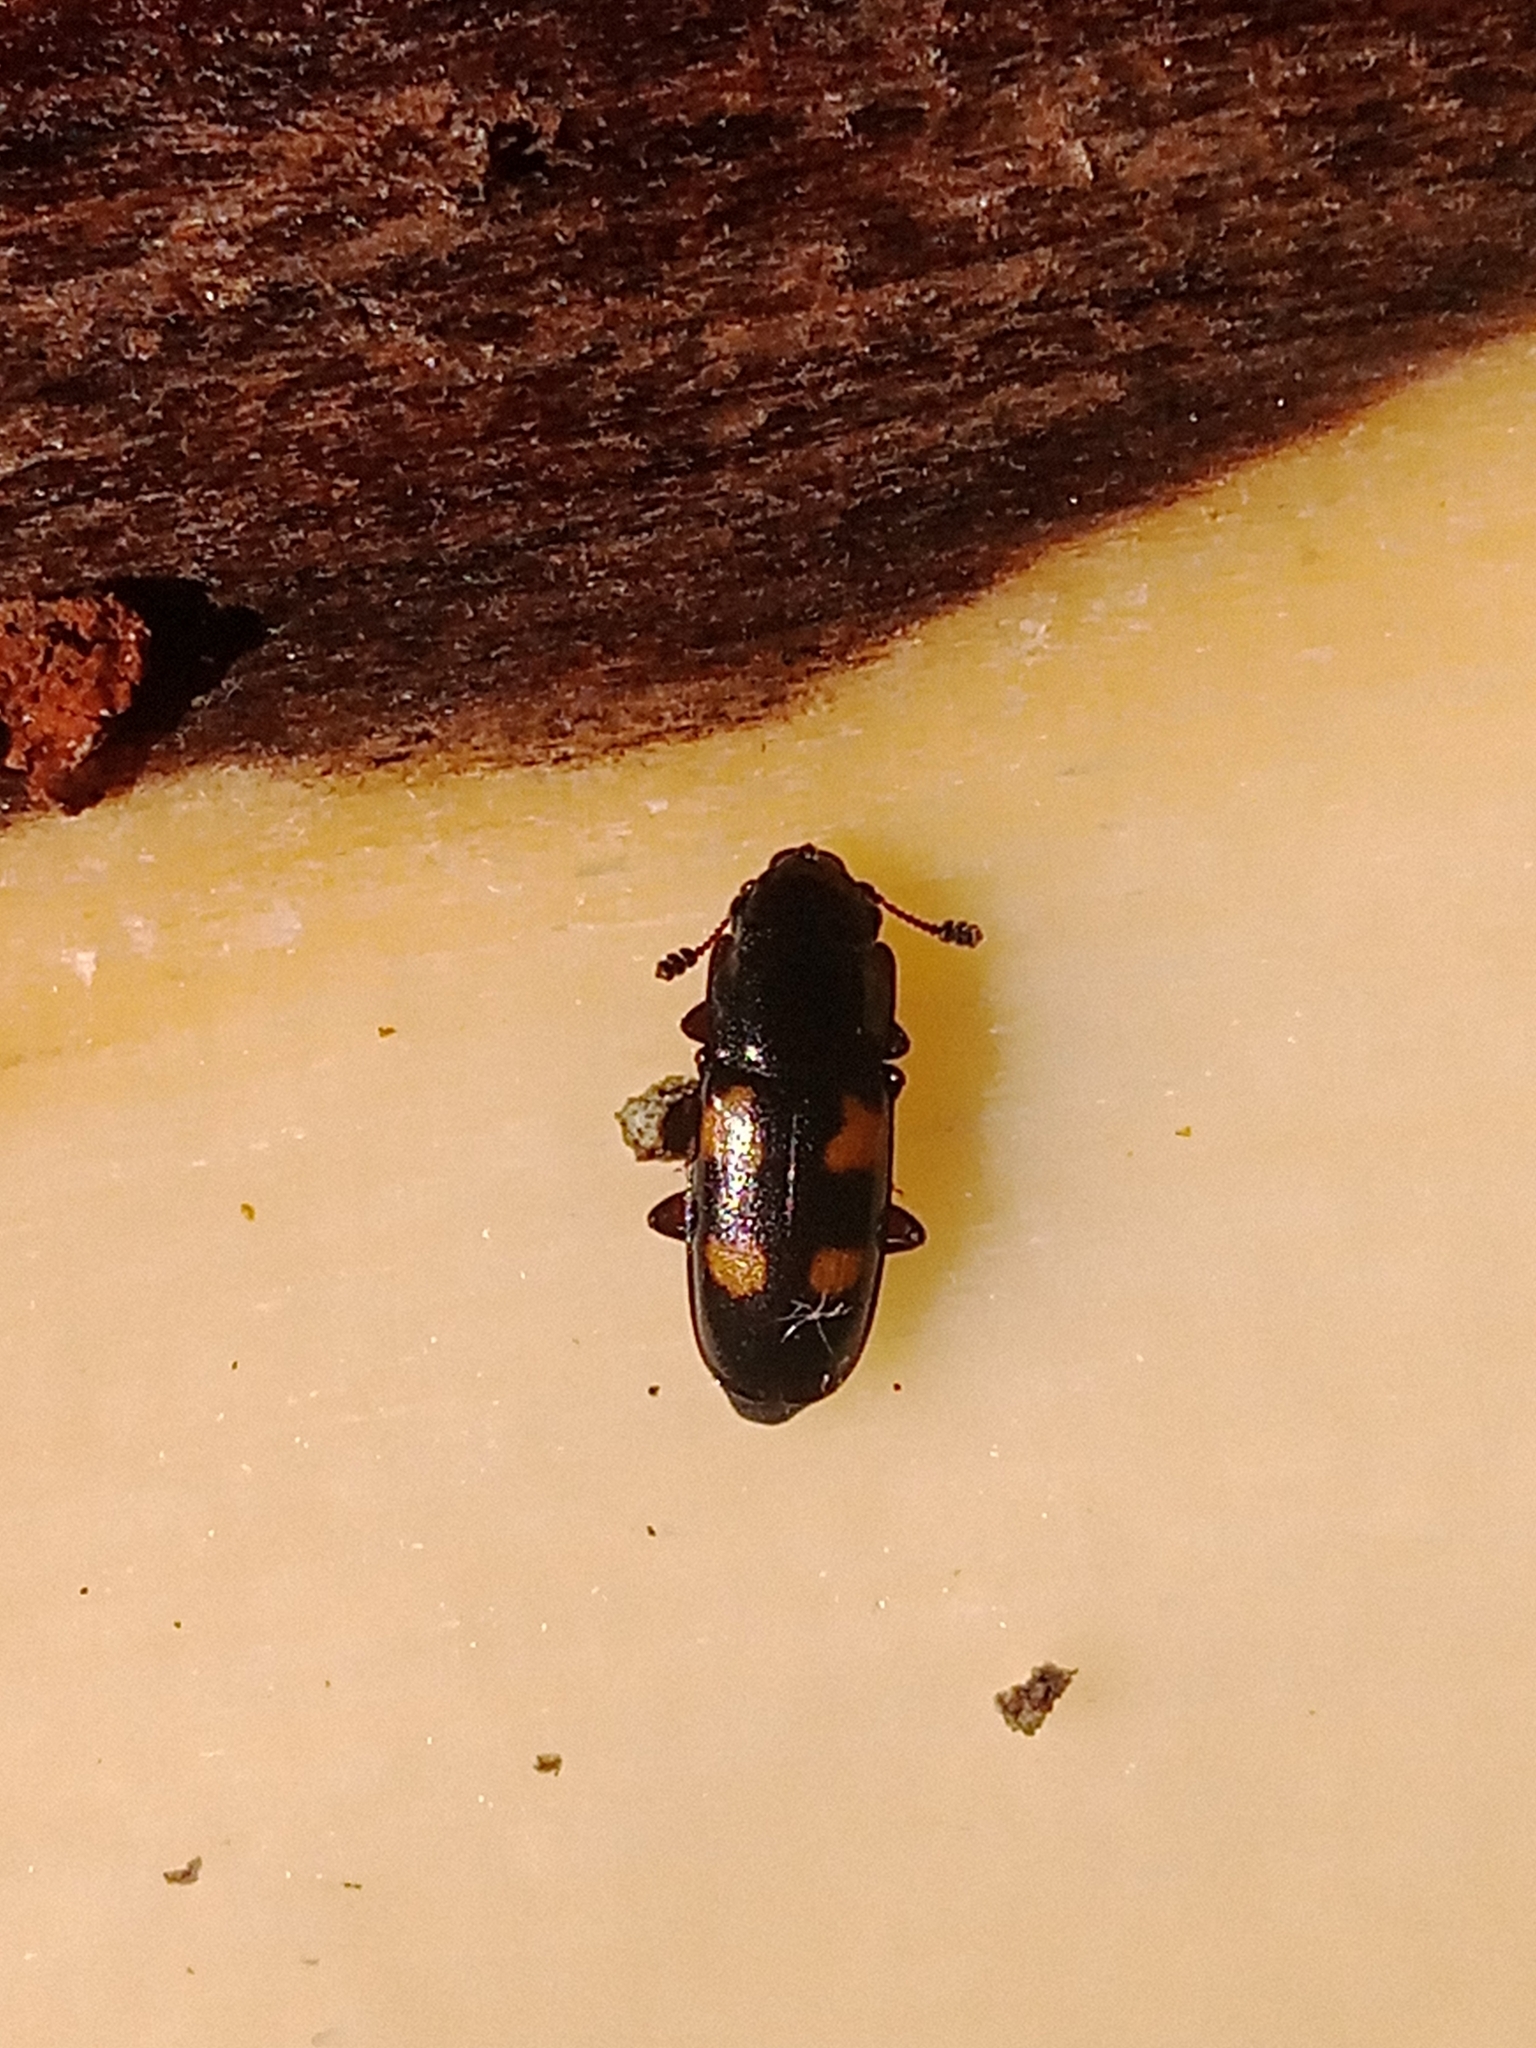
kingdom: Animalia
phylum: Arthropoda
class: Insecta
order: Coleoptera
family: Nitidulidae
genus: Glischrochilus
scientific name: Glischrochilus quadripunctatus
